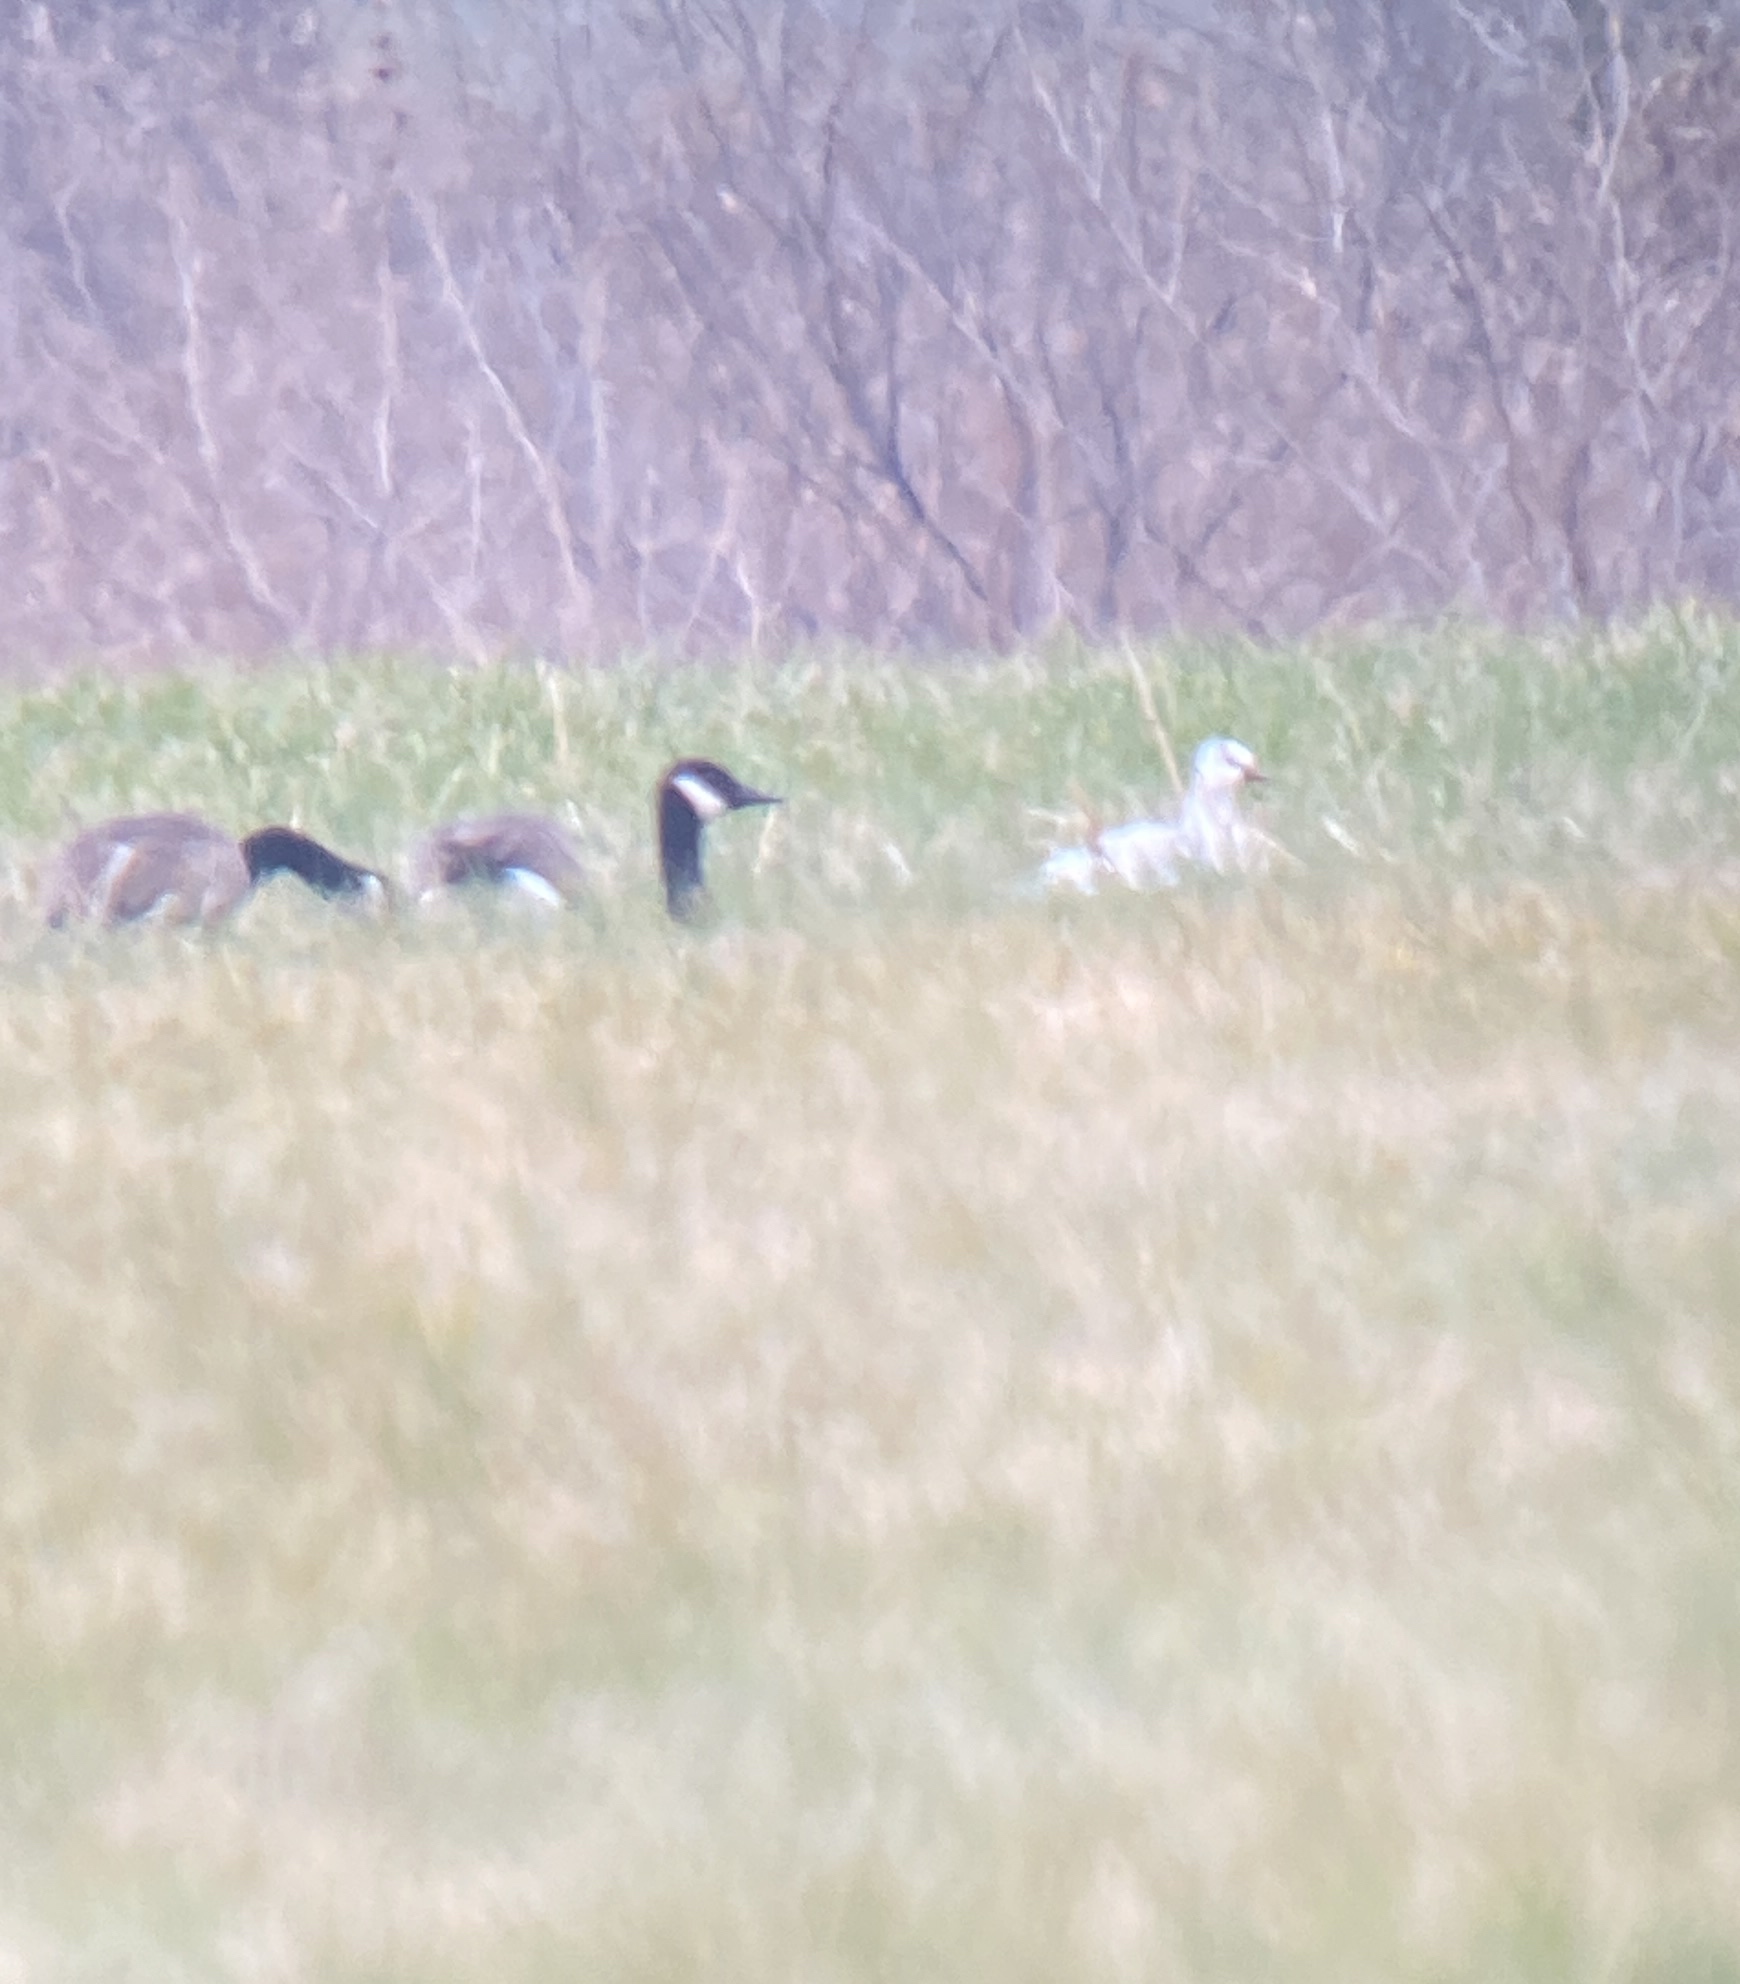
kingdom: Animalia
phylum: Chordata
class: Aves
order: Anseriformes
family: Anatidae
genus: Anser
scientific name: Anser rossii
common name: Ross's goose
